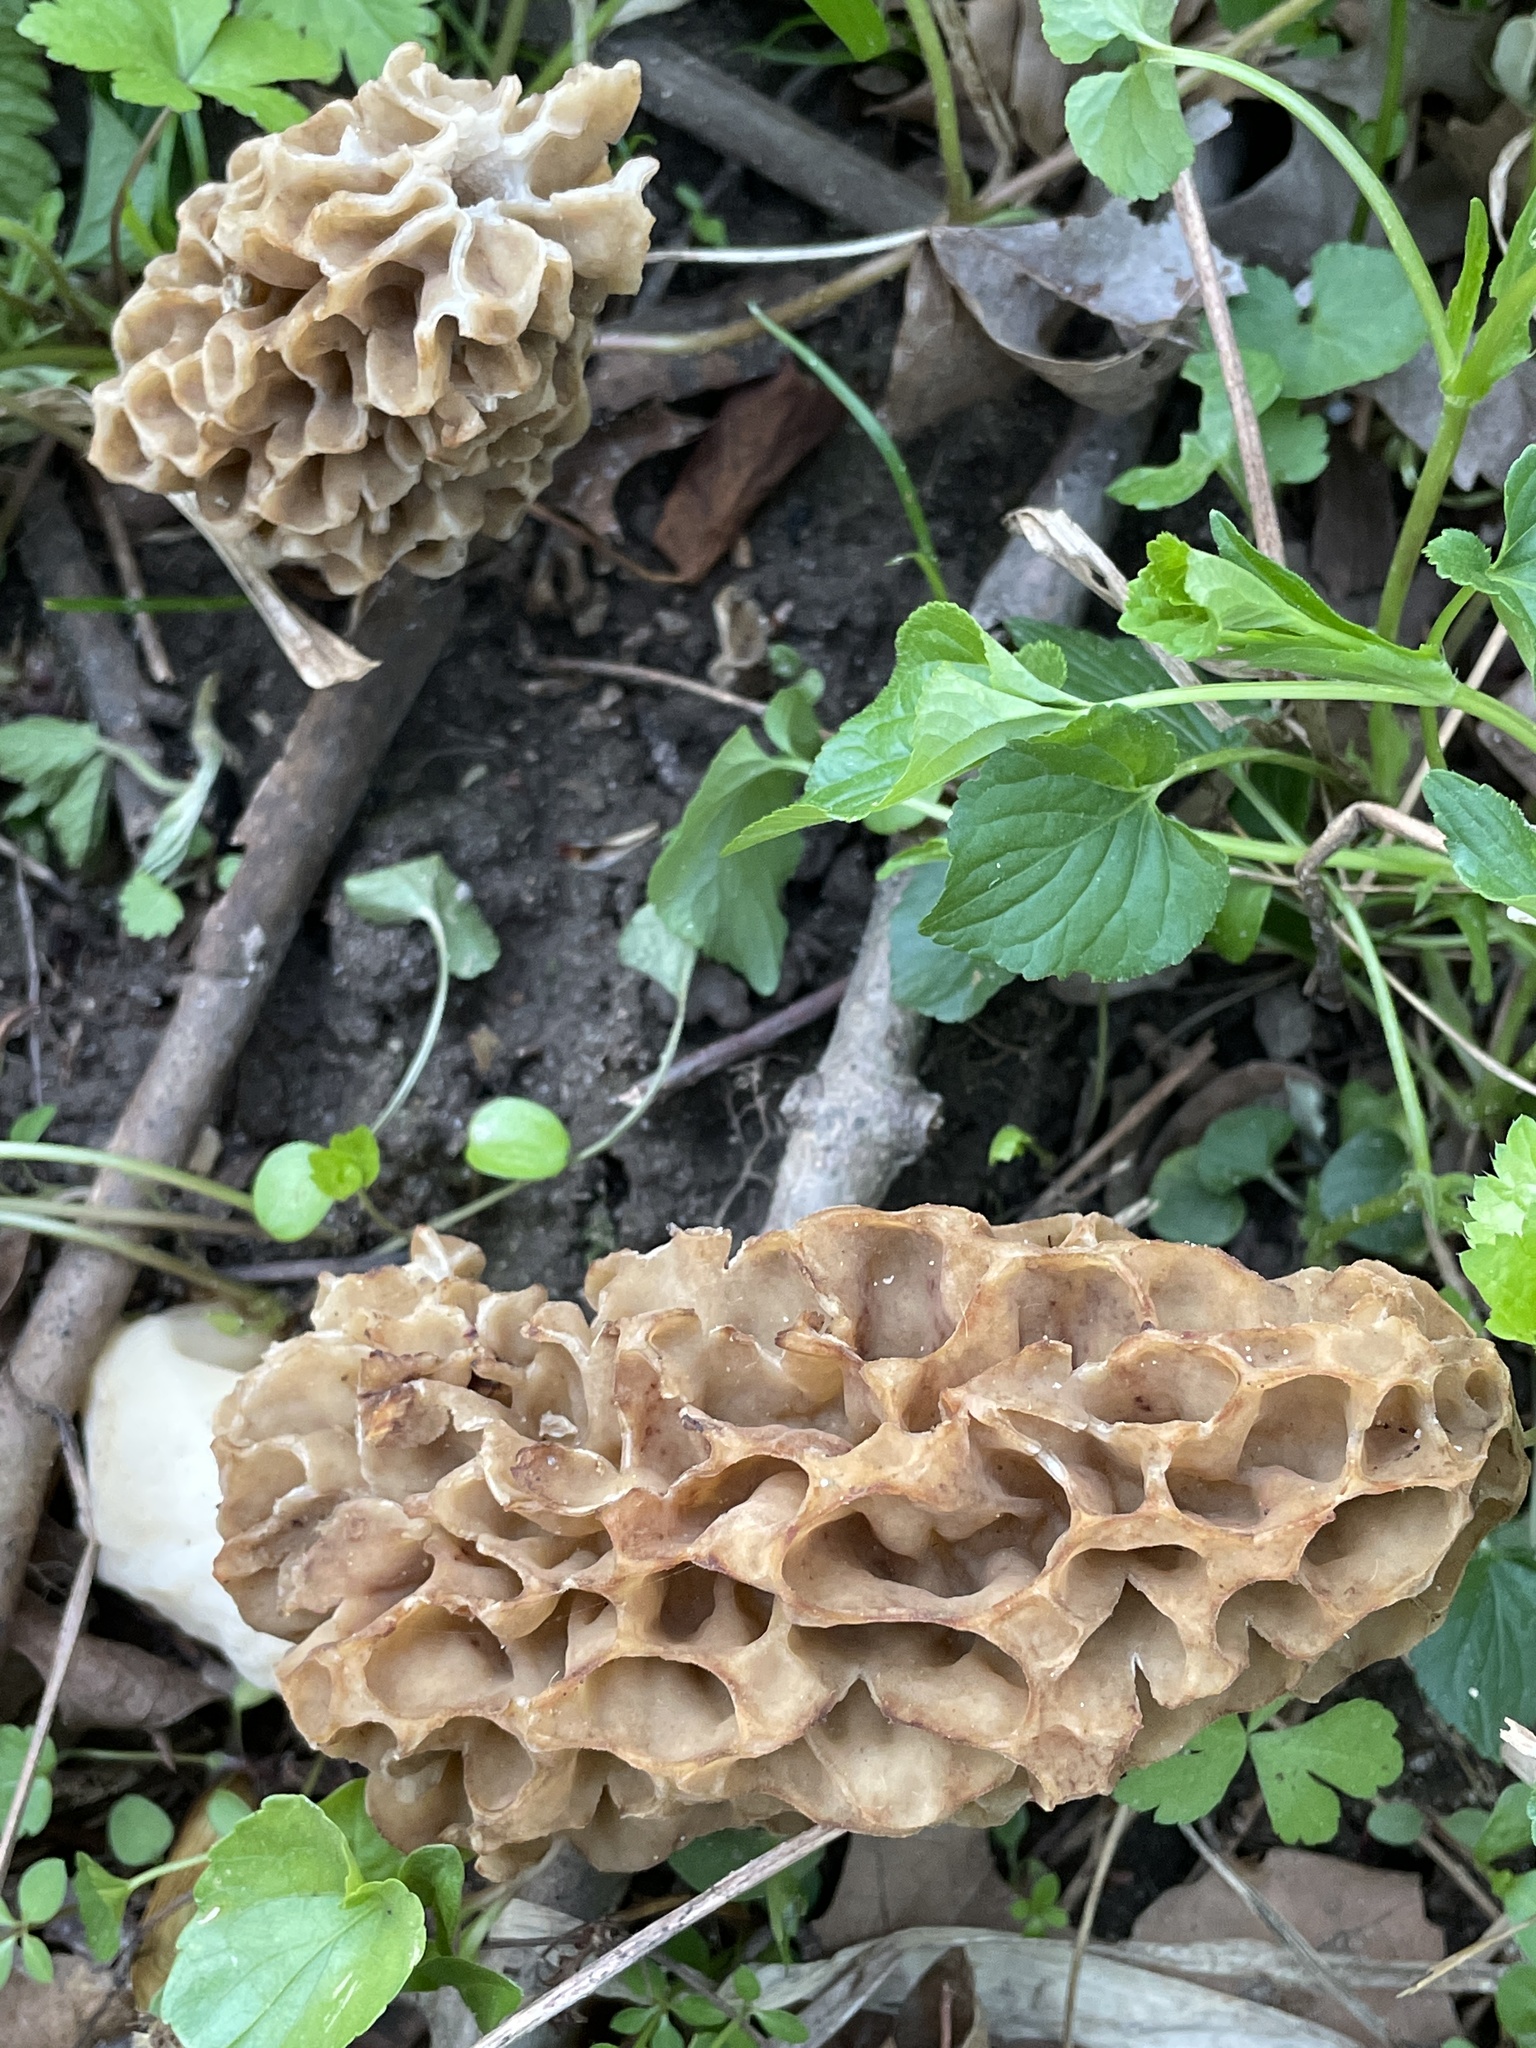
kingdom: Fungi
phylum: Ascomycota
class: Pezizomycetes
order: Pezizales
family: Morchellaceae
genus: Morchella
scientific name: Morchella americana
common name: White morel
